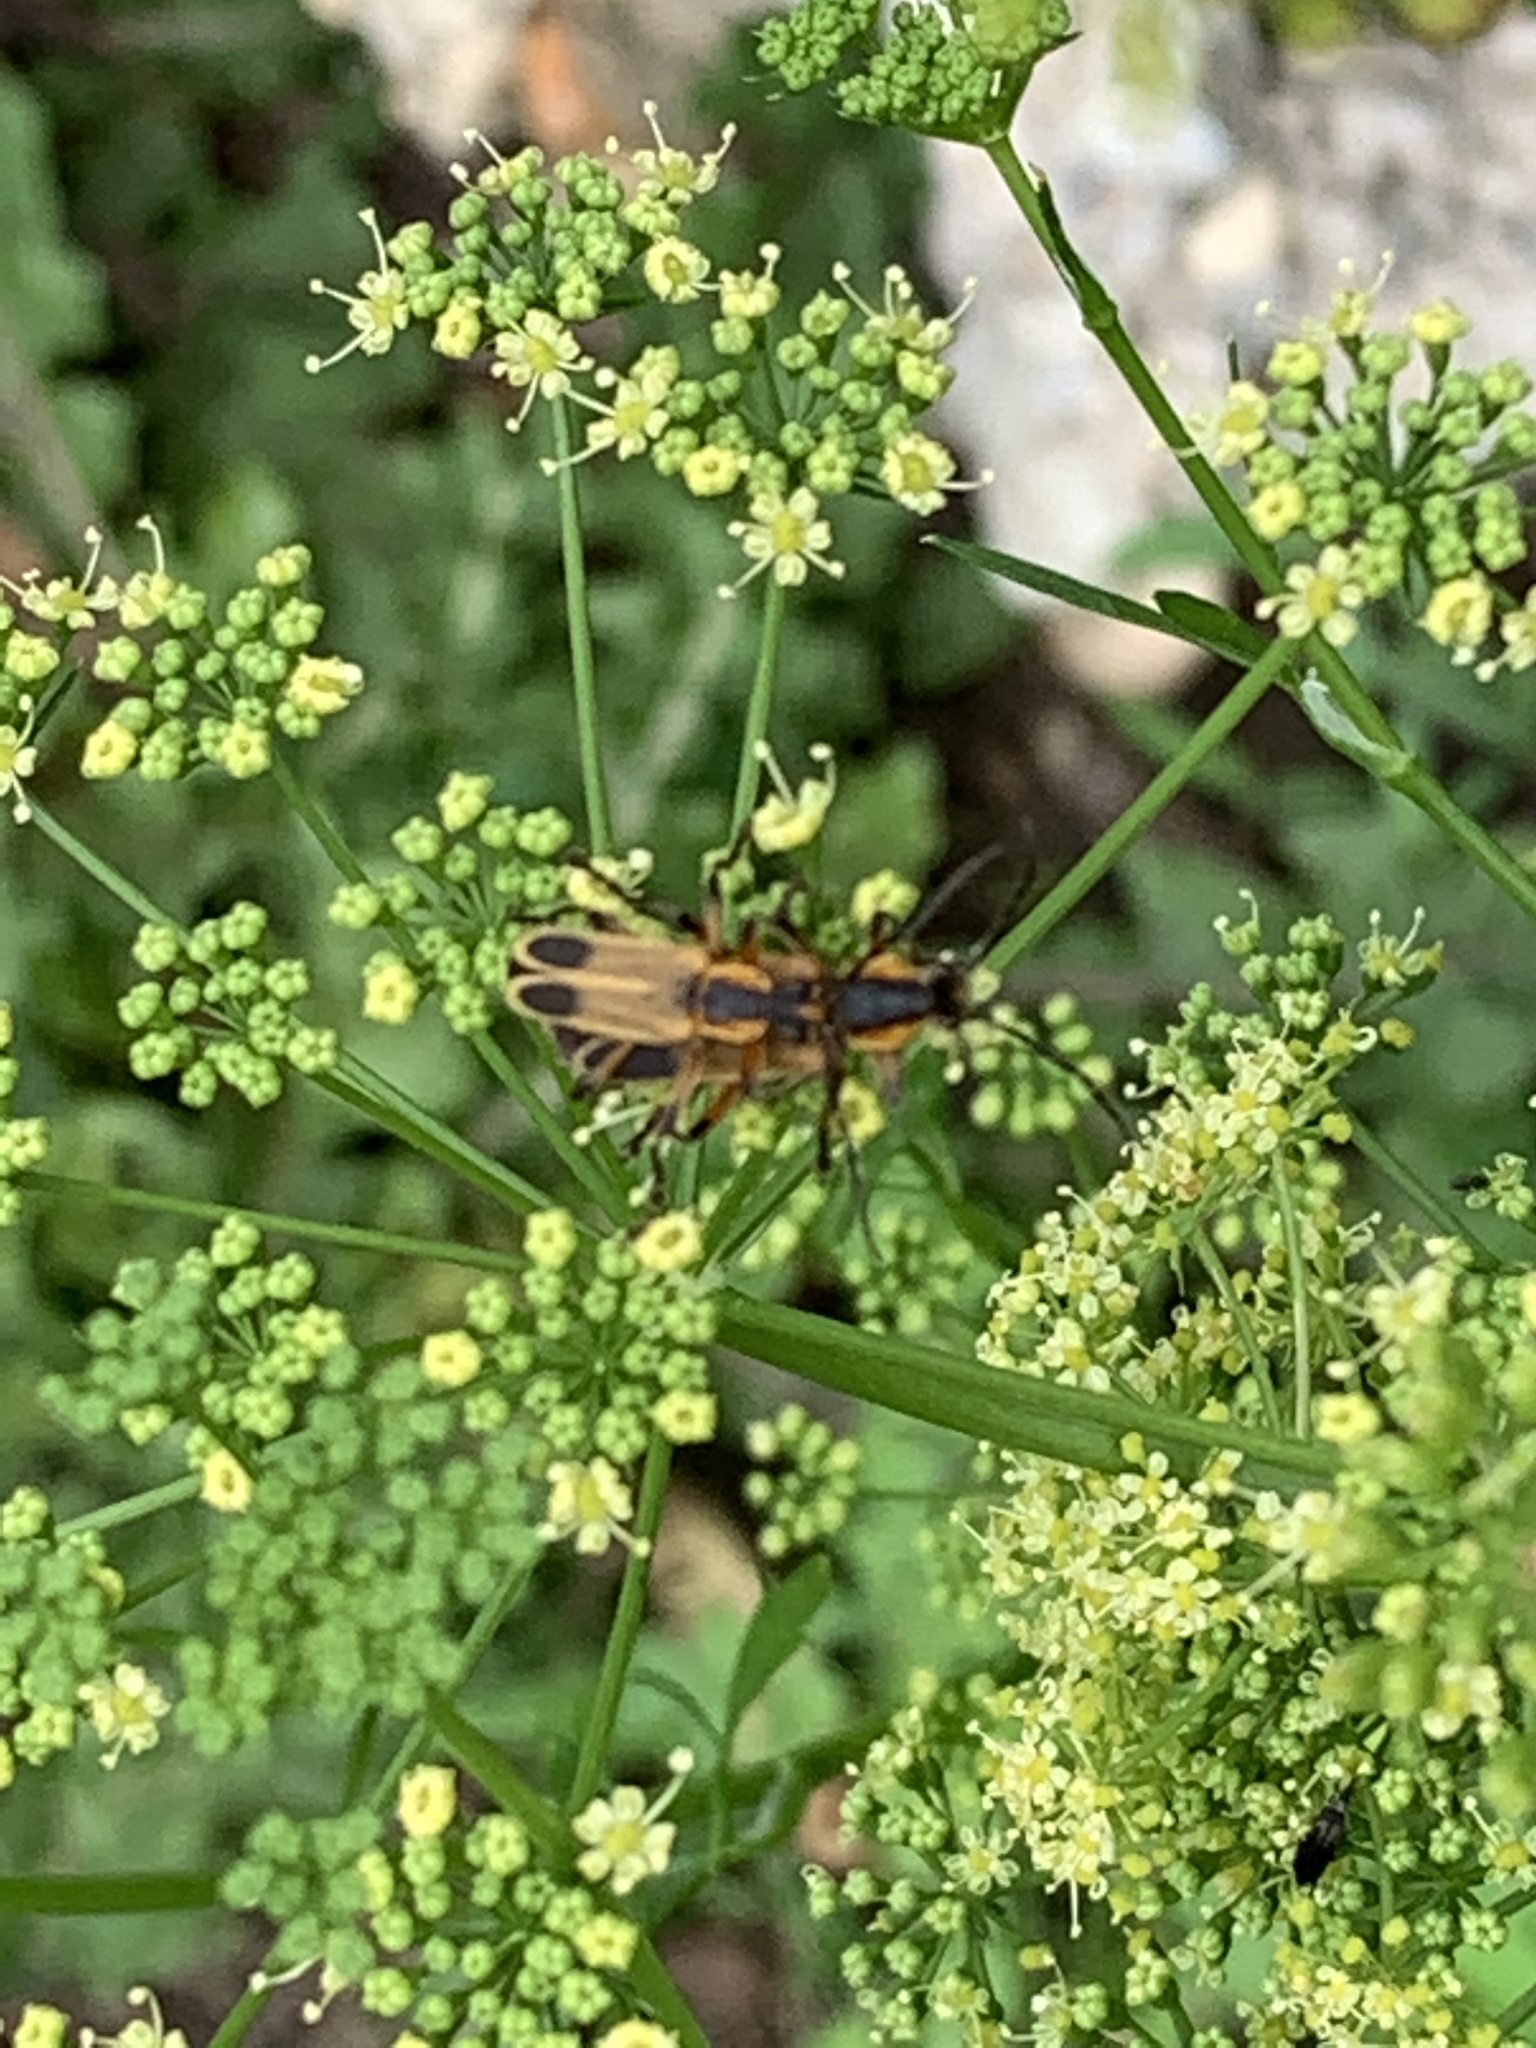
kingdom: Animalia
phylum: Arthropoda
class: Insecta
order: Coleoptera
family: Cantharidae
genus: Chauliognathus
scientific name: Chauliognathus marginatus
